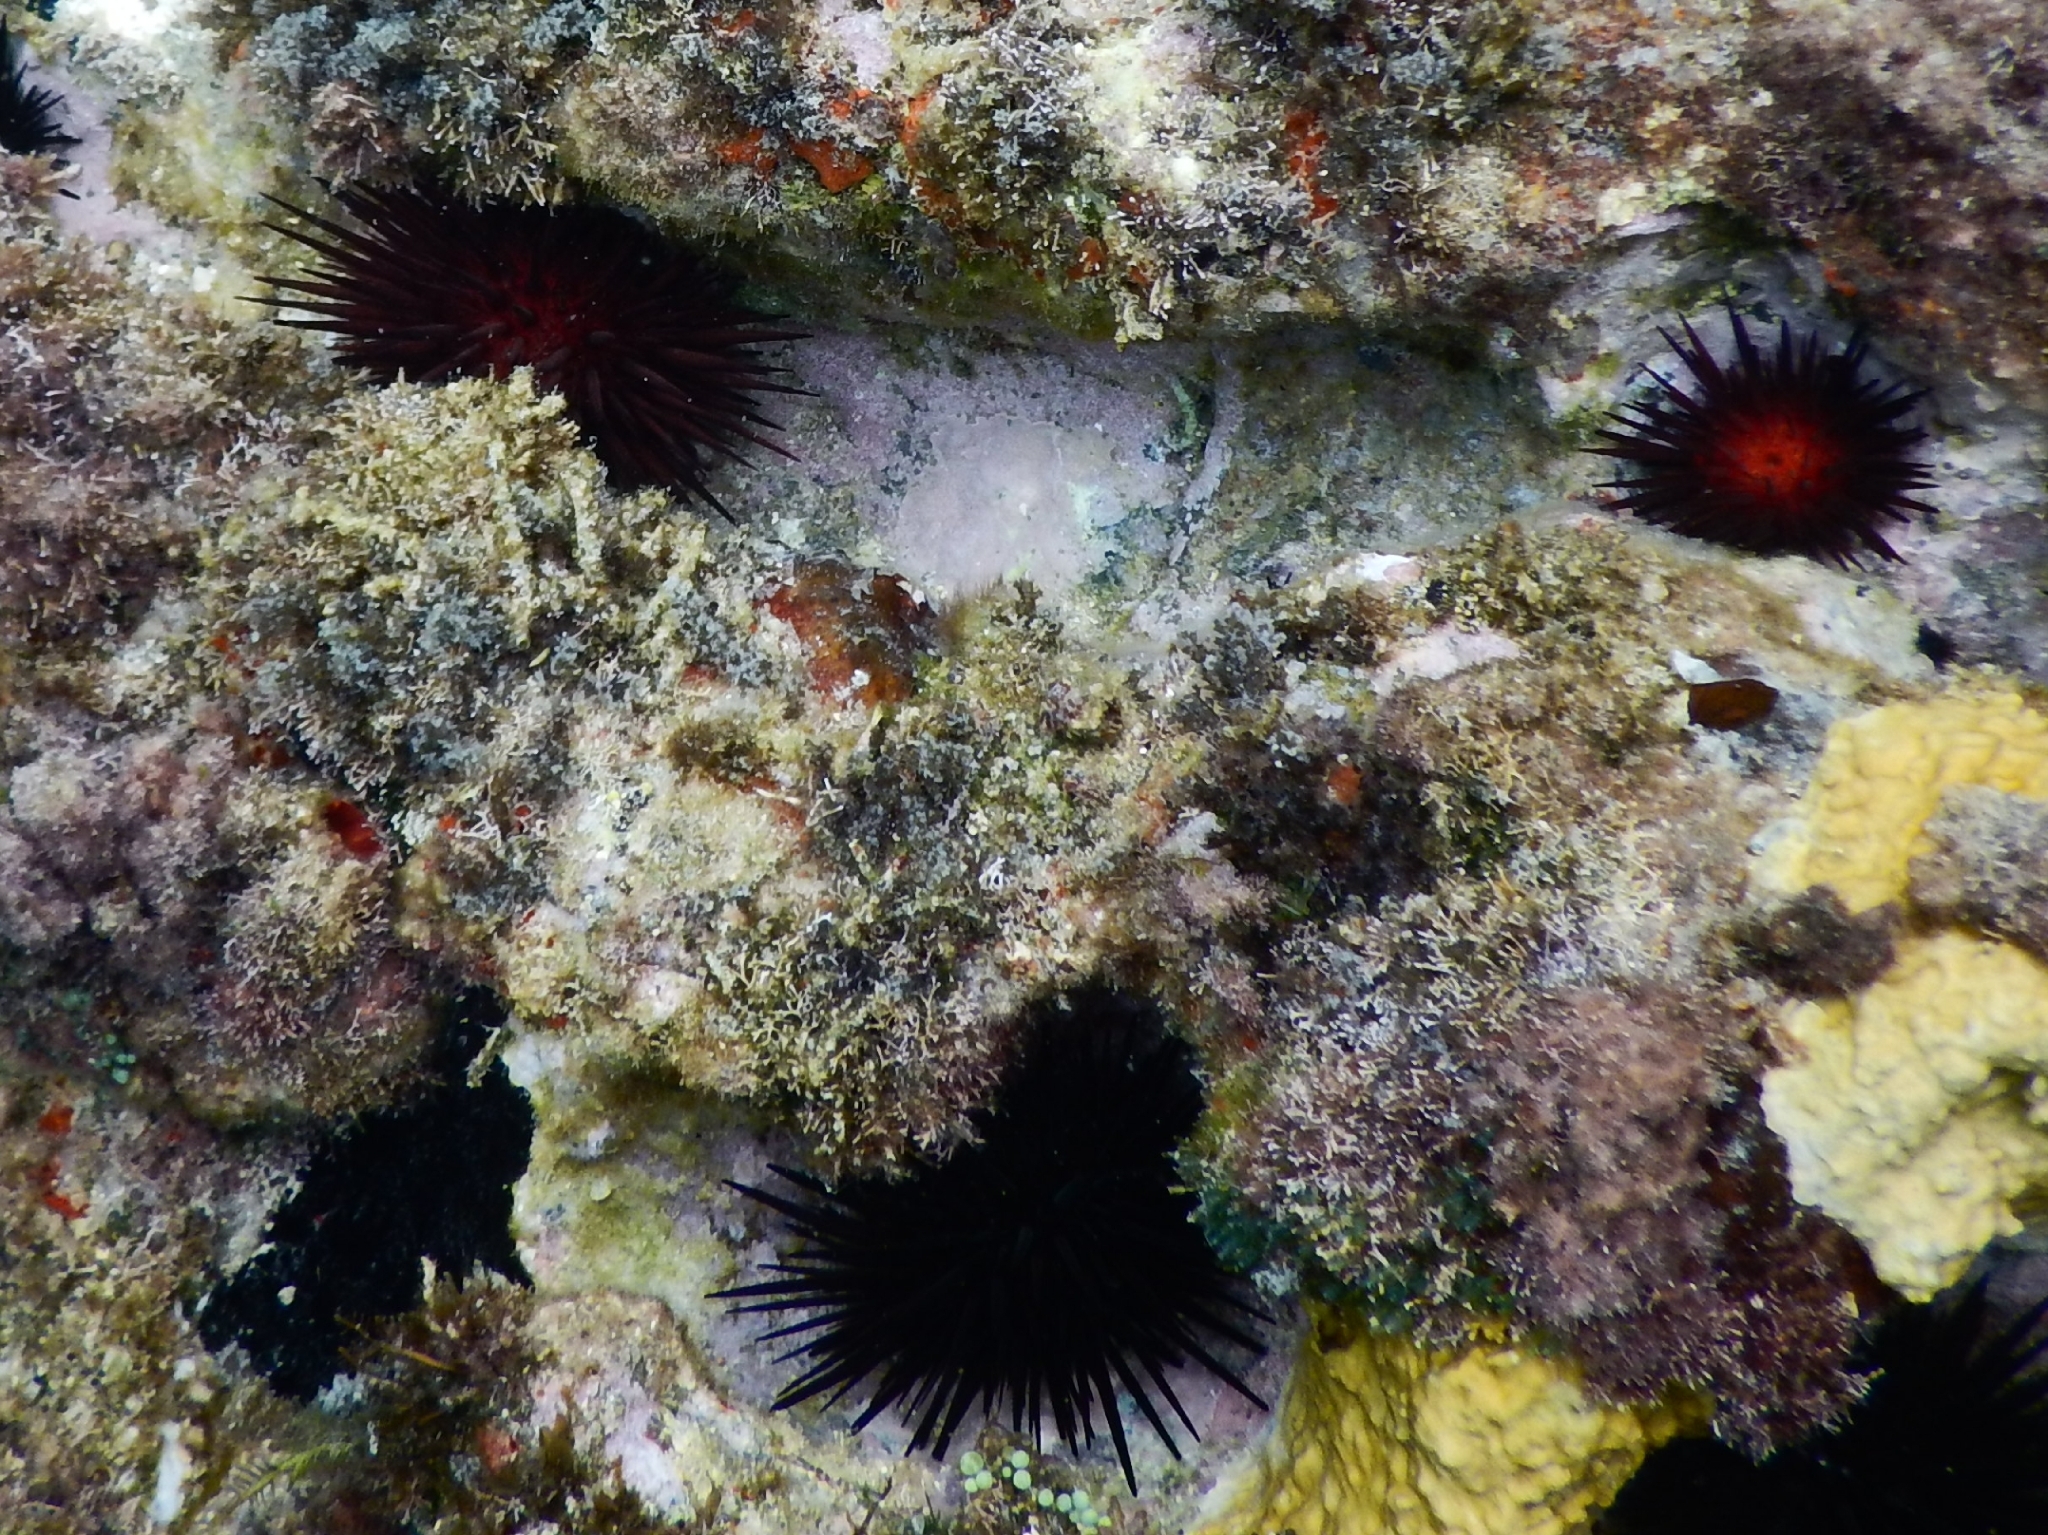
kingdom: Animalia
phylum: Echinodermata
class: Echinoidea
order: Camarodonta
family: Echinometridae
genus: Echinometra
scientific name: Echinometra lucunter
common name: Rock urchin
